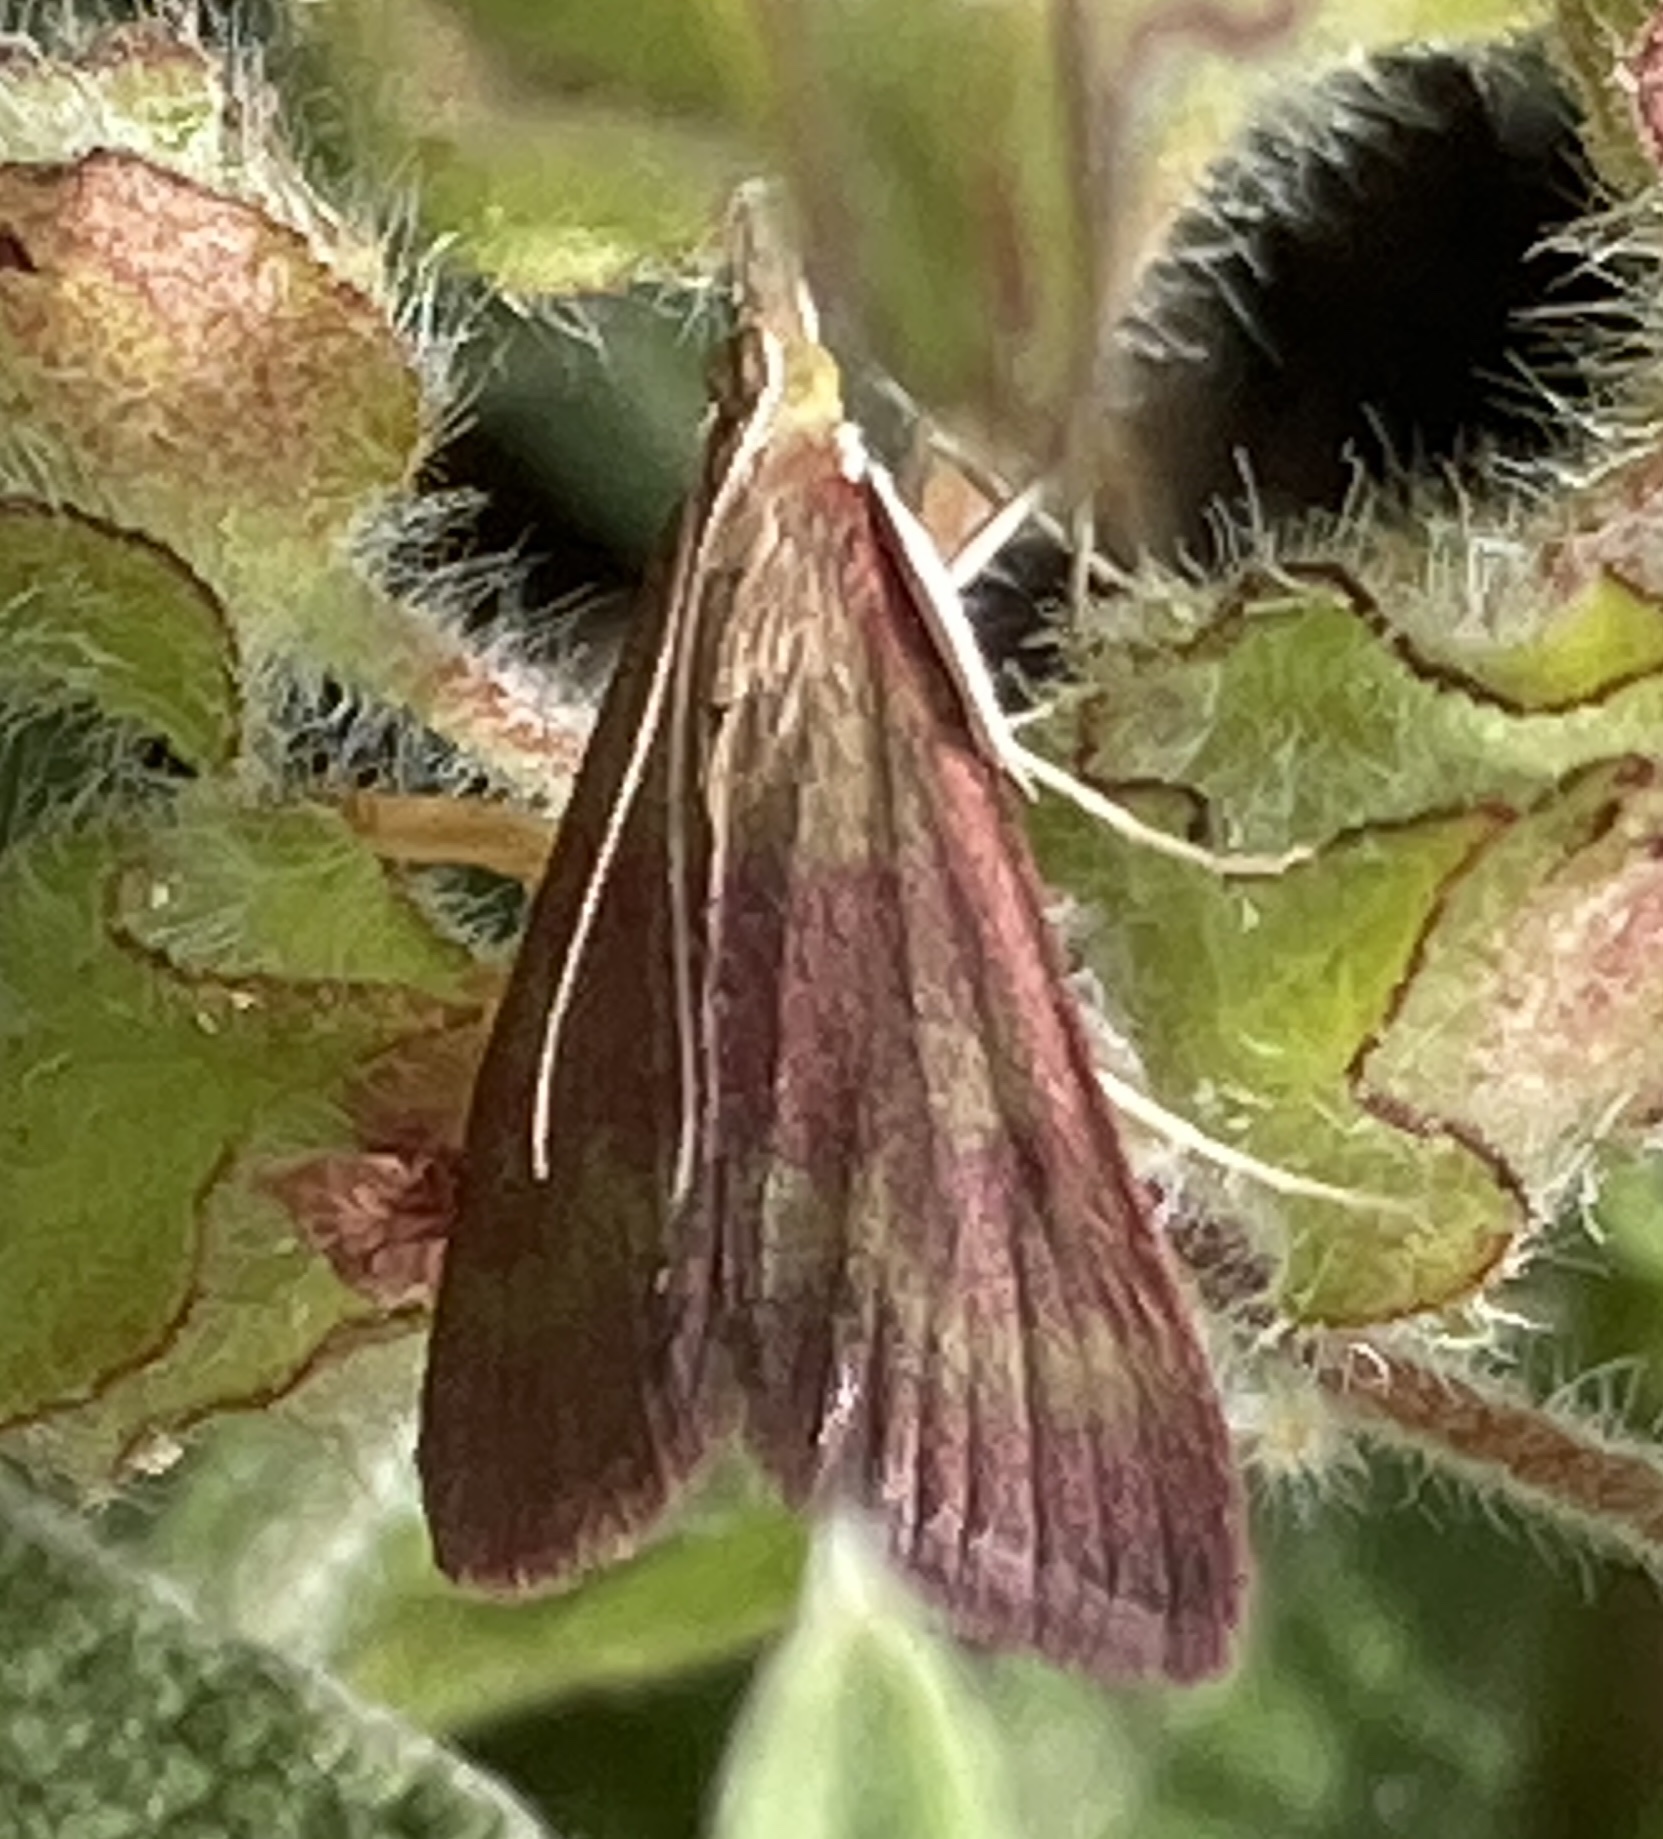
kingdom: Animalia
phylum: Arthropoda
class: Insecta
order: Lepidoptera
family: Crambidae
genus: Pyrausta
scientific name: Pyrausta laticlavia
